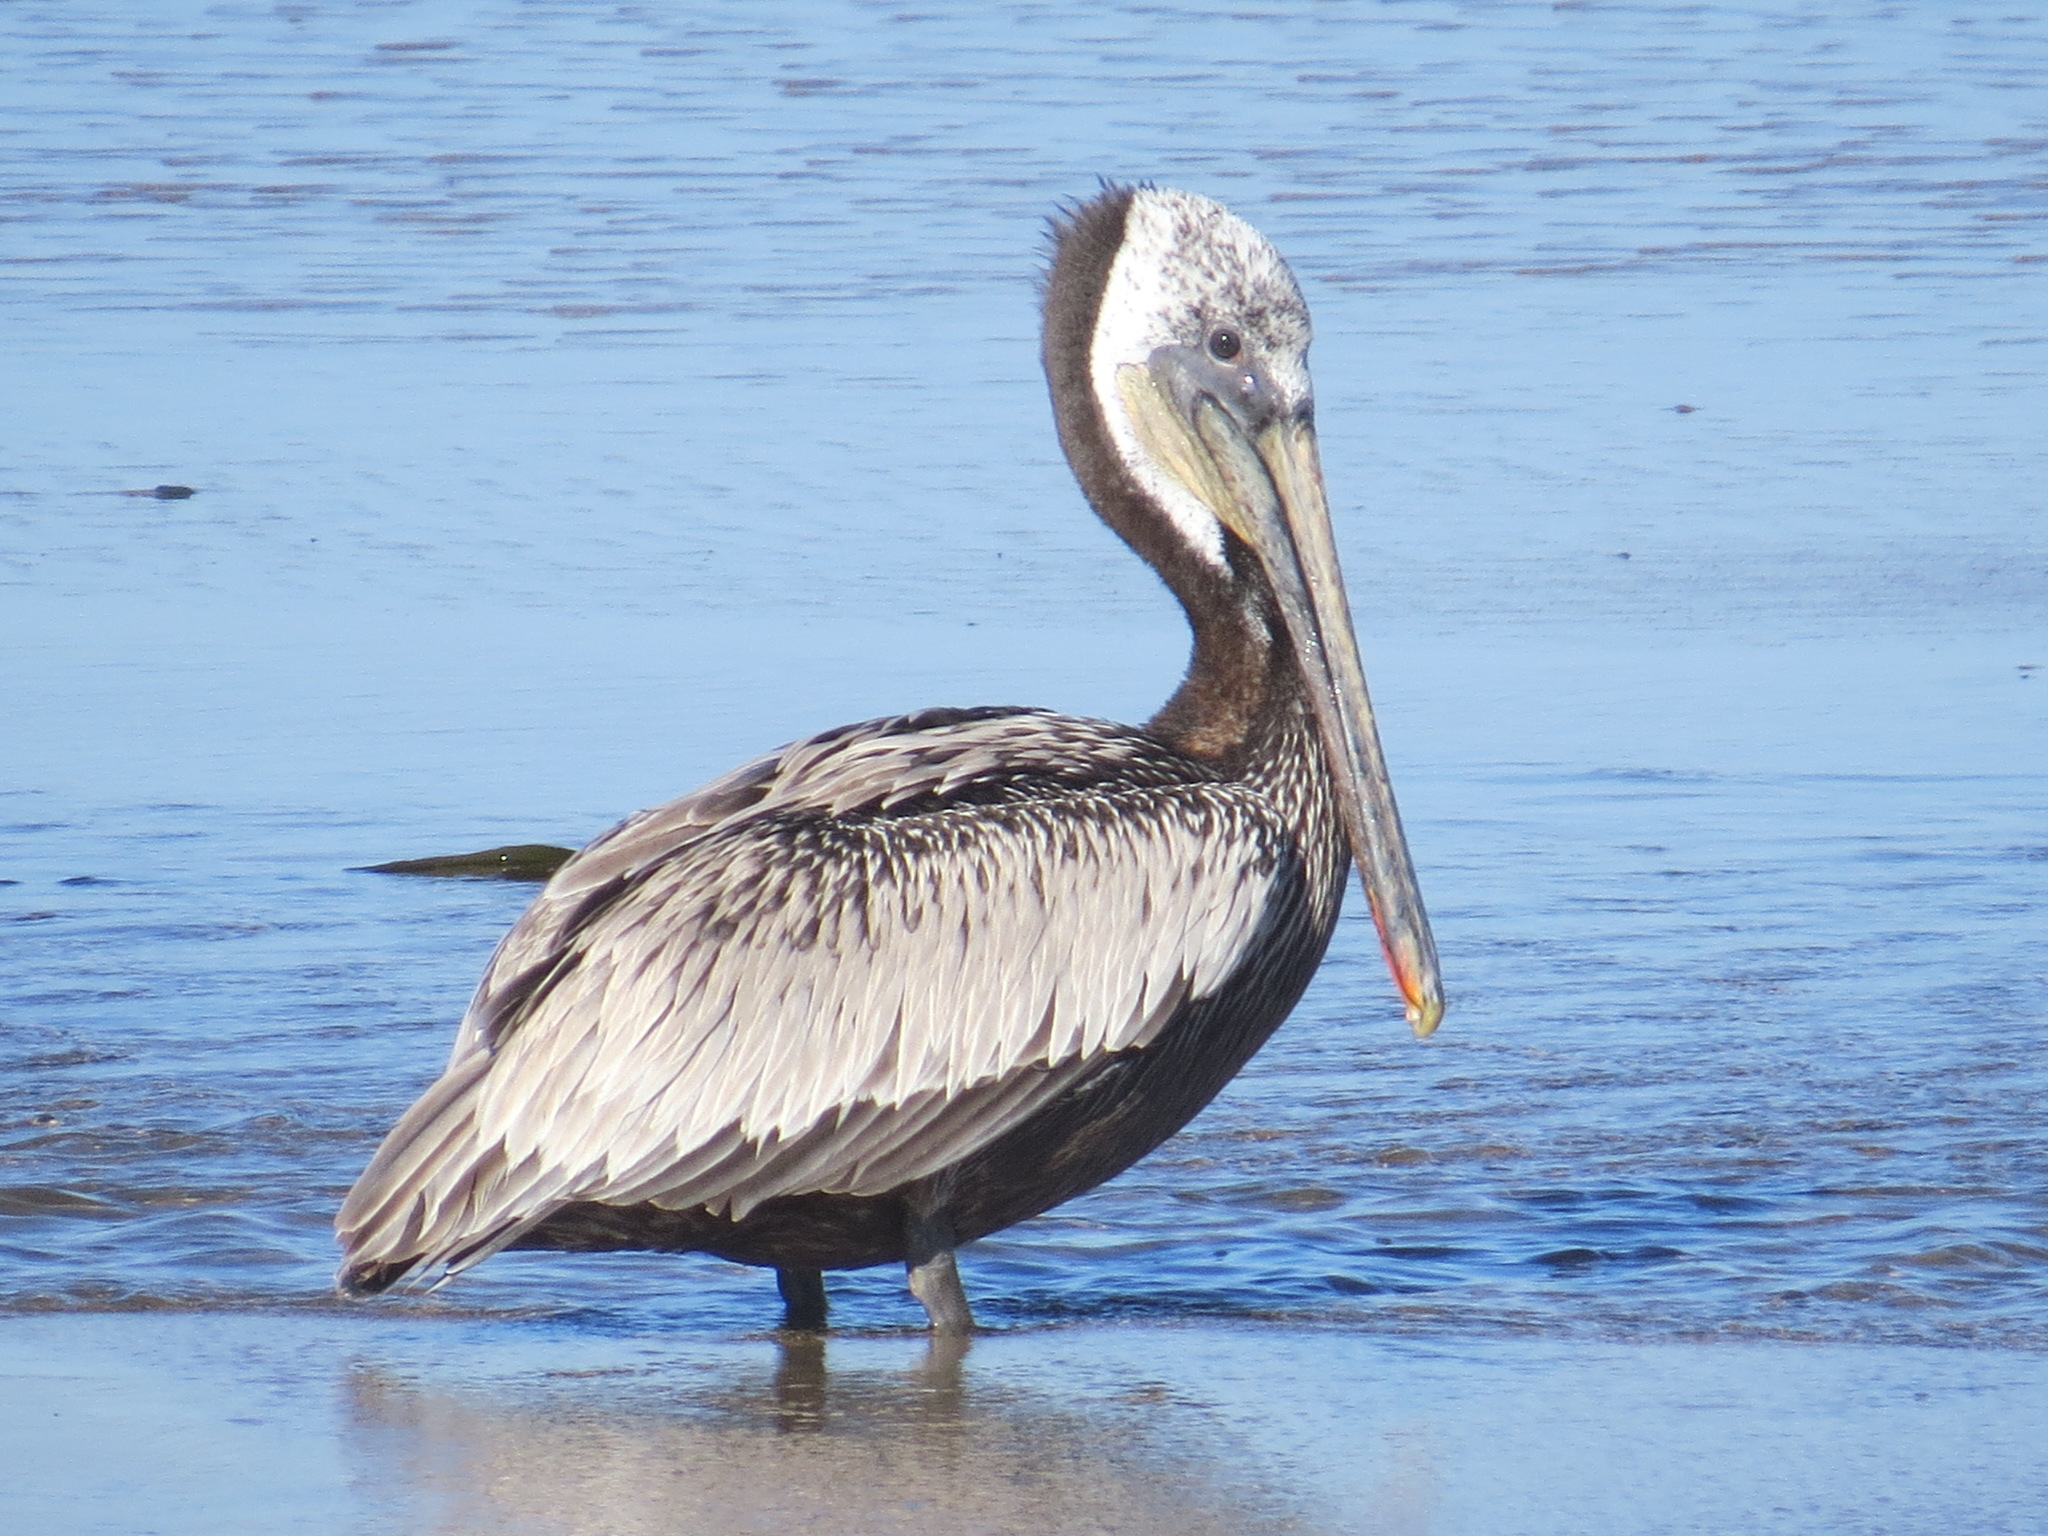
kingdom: Animalia
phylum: Chordata
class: Aves
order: Pelecaniformes
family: Pelecanidae
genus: Pelecanus
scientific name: Pelecanus occidentalis
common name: Brown pelican
